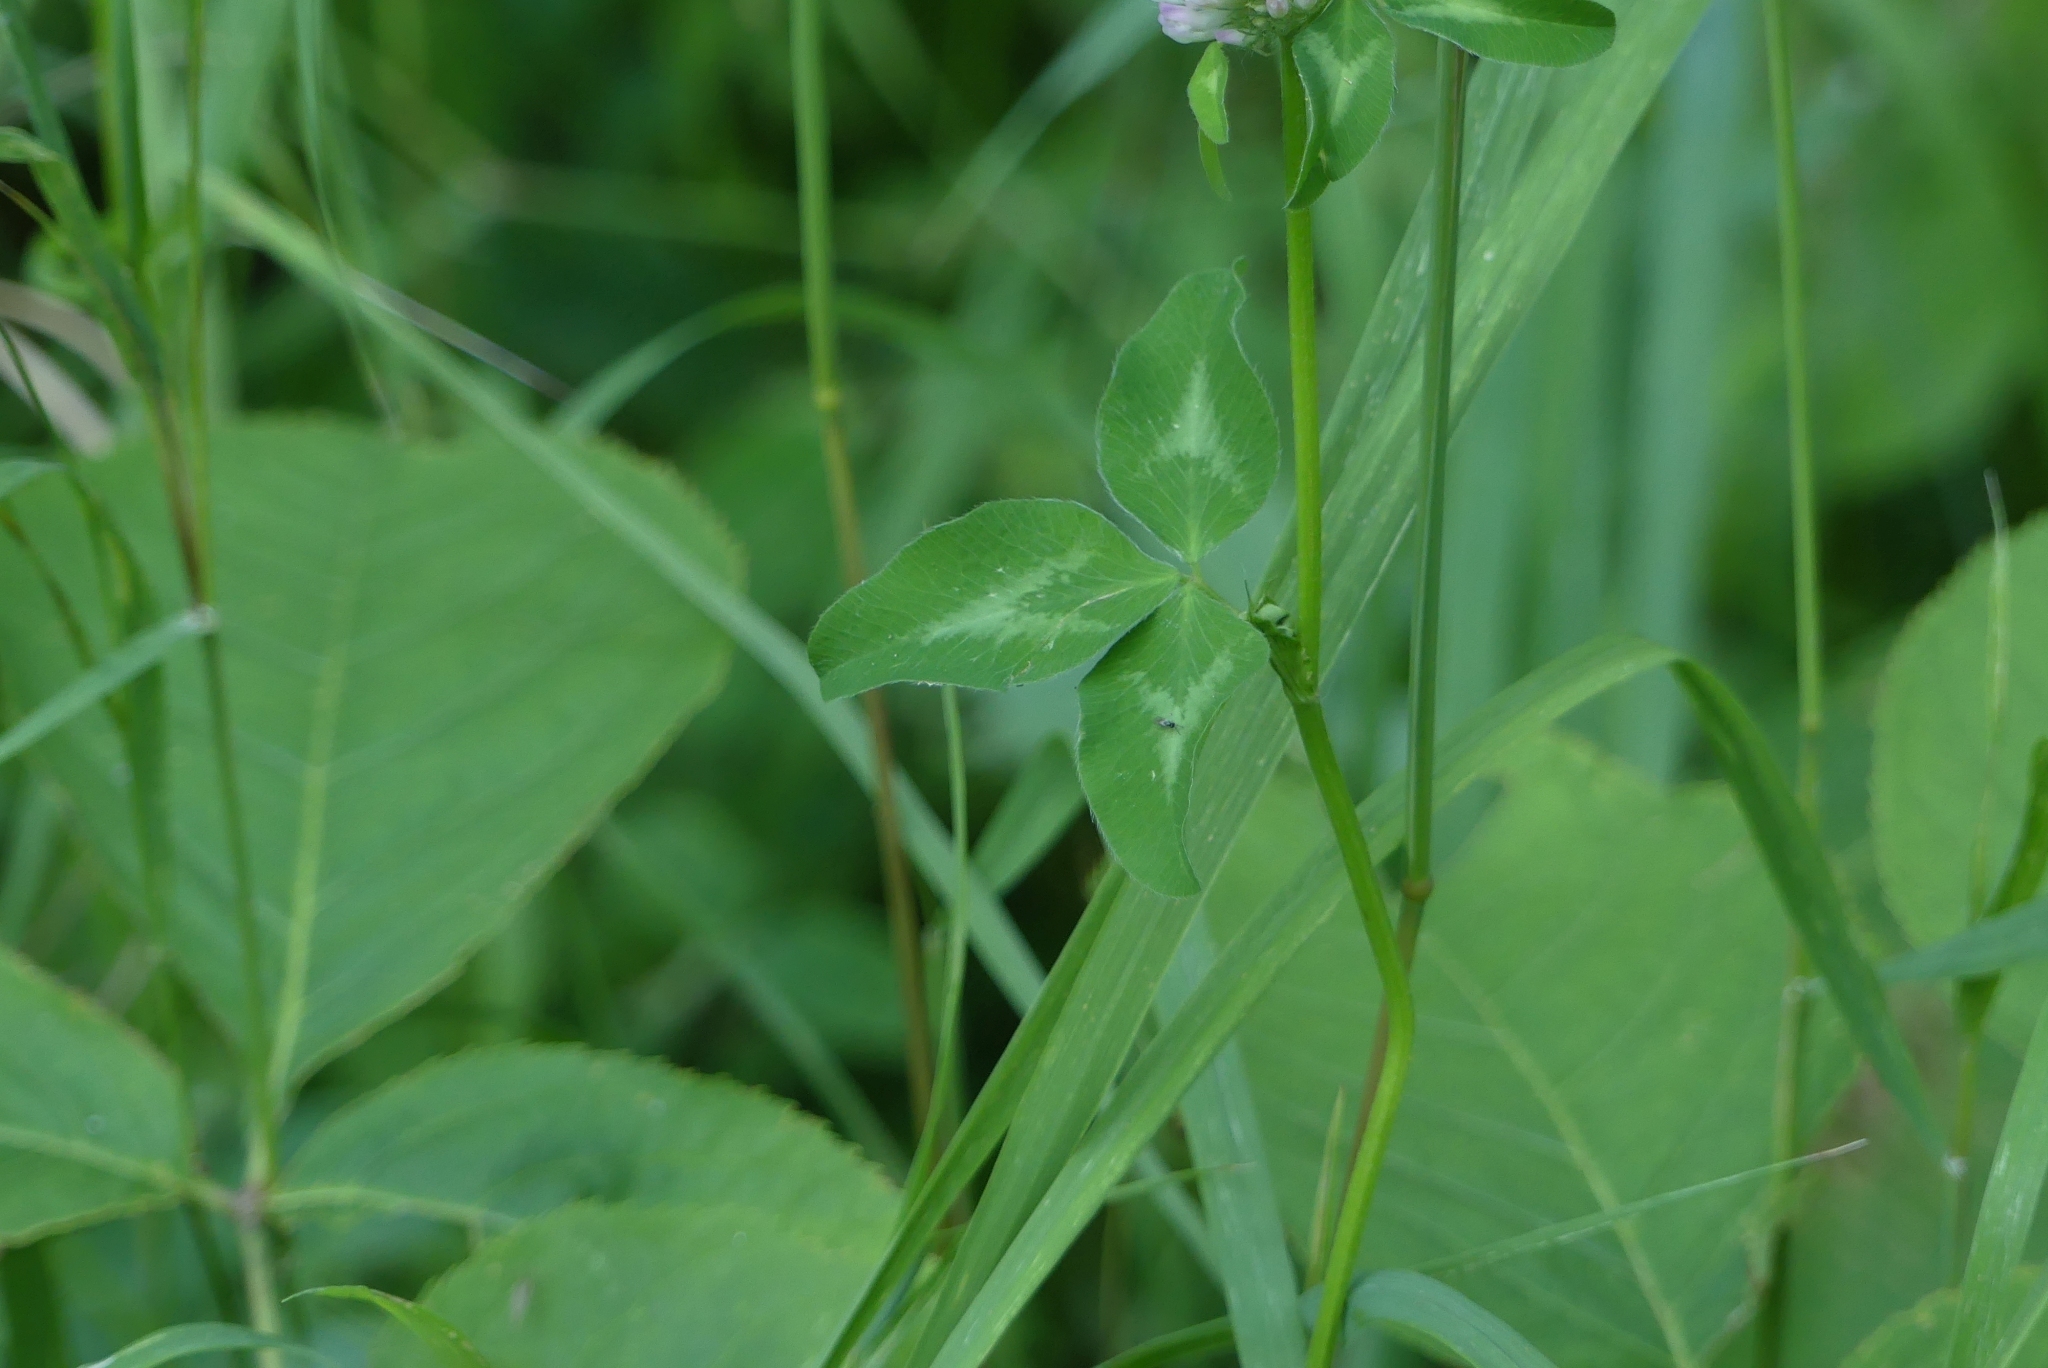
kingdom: Plantae
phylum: Tracheophyta
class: Magnoliopsida
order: Fabales
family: Fabaceae
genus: Trifolium
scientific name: Trifolium pratense
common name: Red clover
